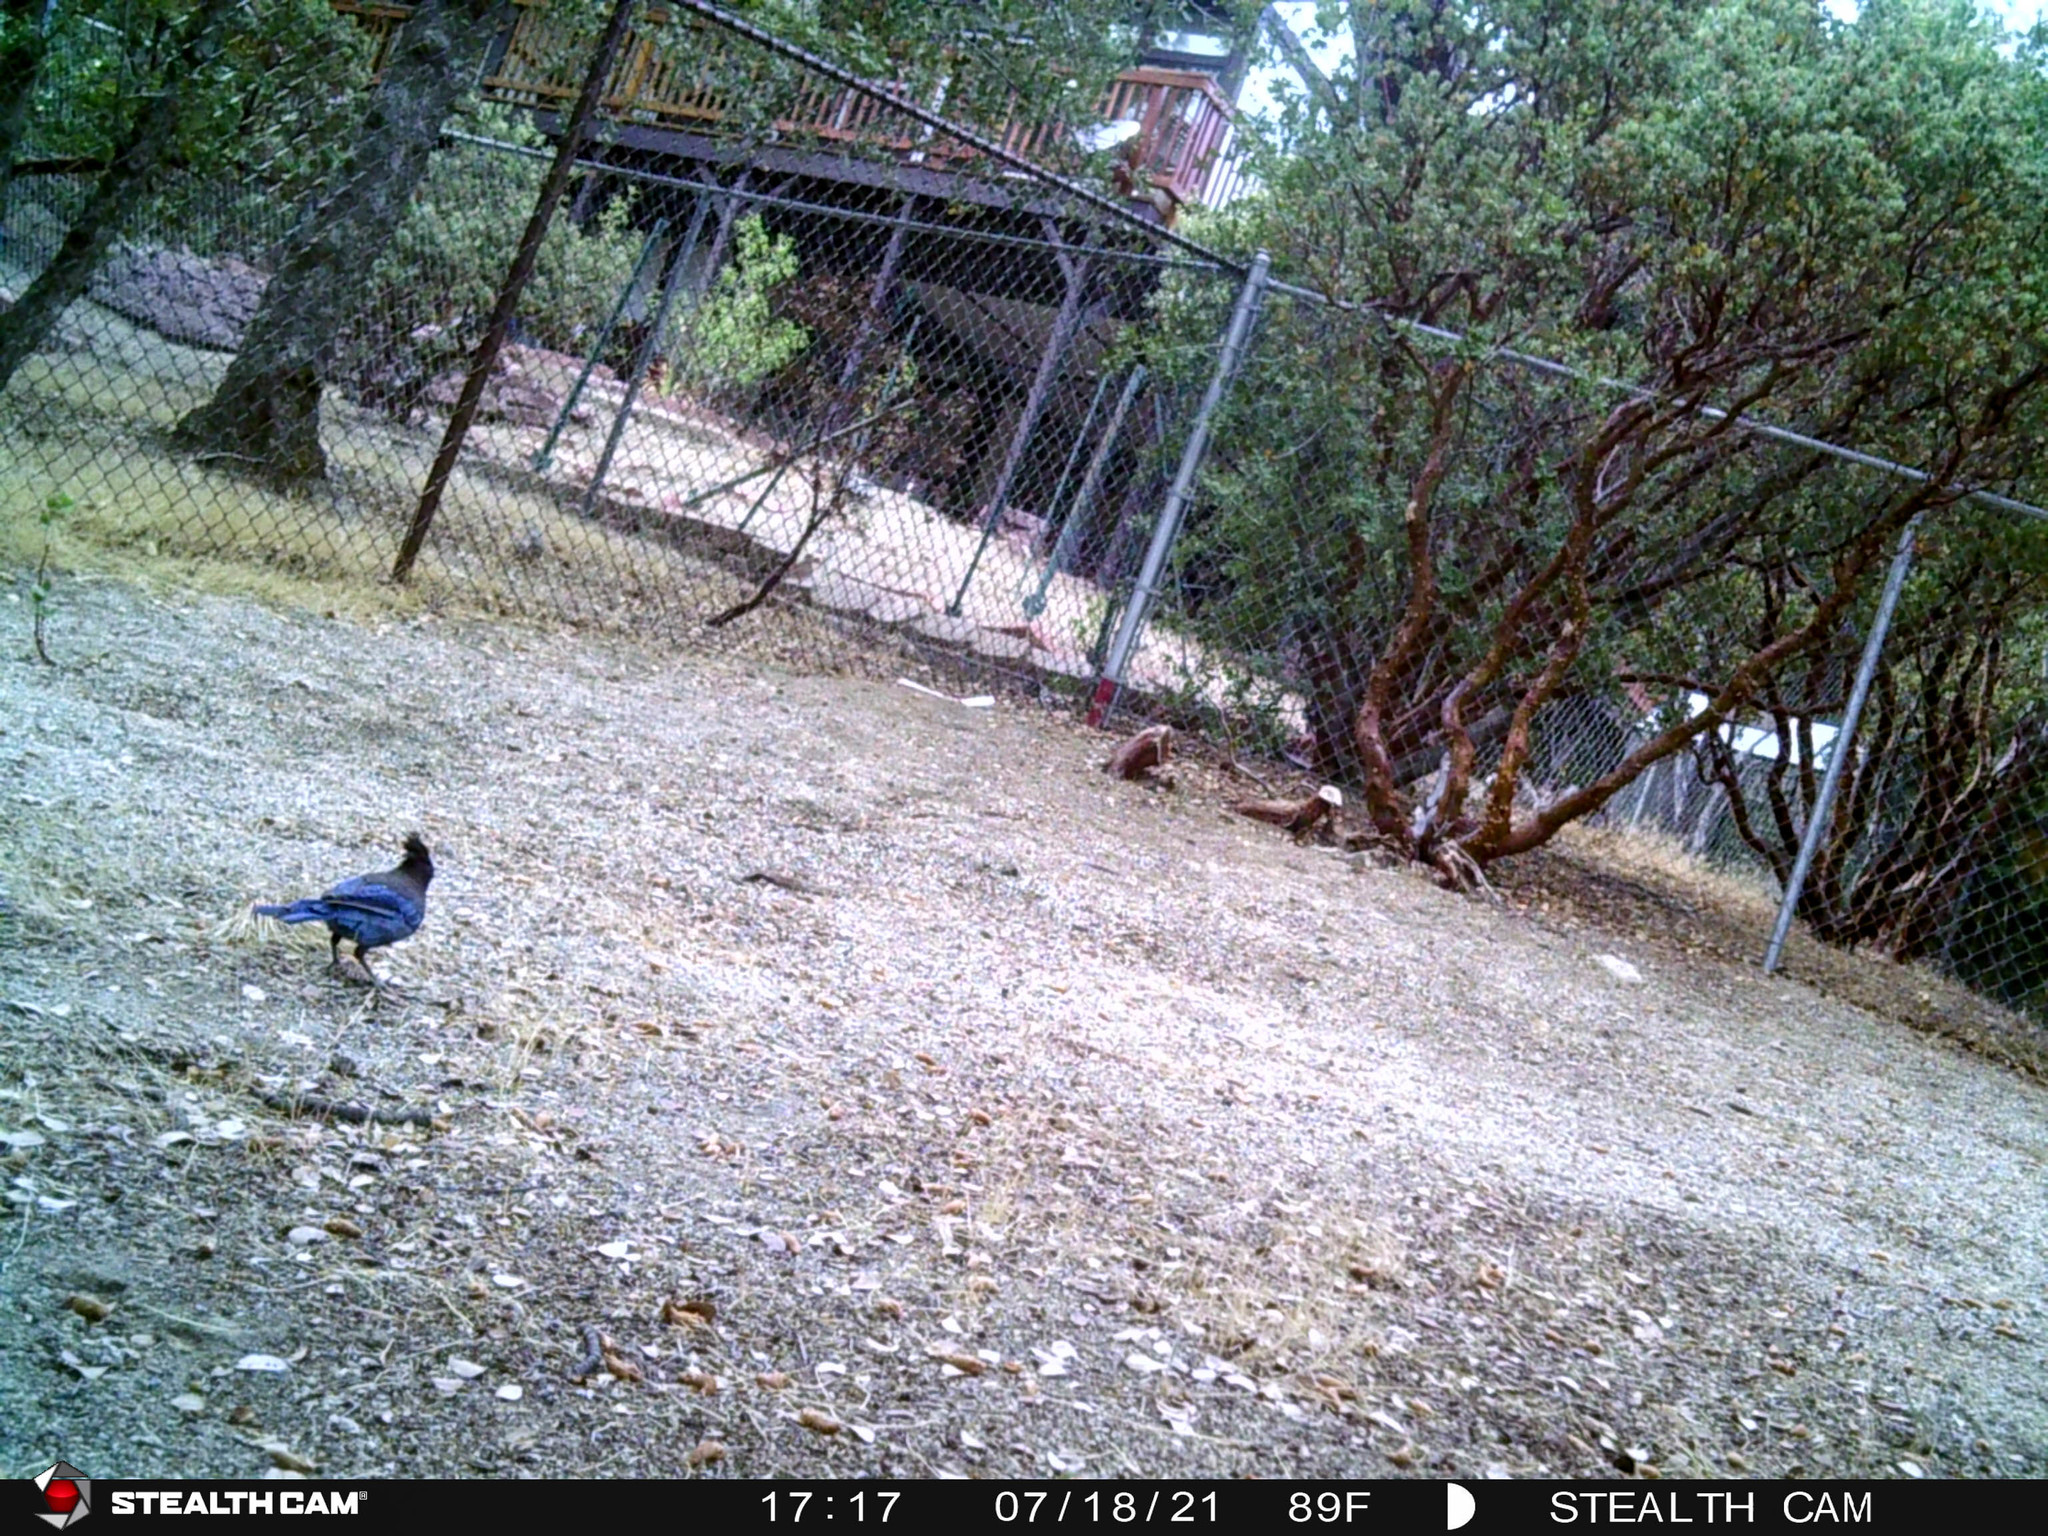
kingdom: Animalia
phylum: Chordata
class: Aves
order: Passeriformes
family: Corvidae
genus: Cyanocitta
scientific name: Cyanocitta stelleri
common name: Steller's jay
